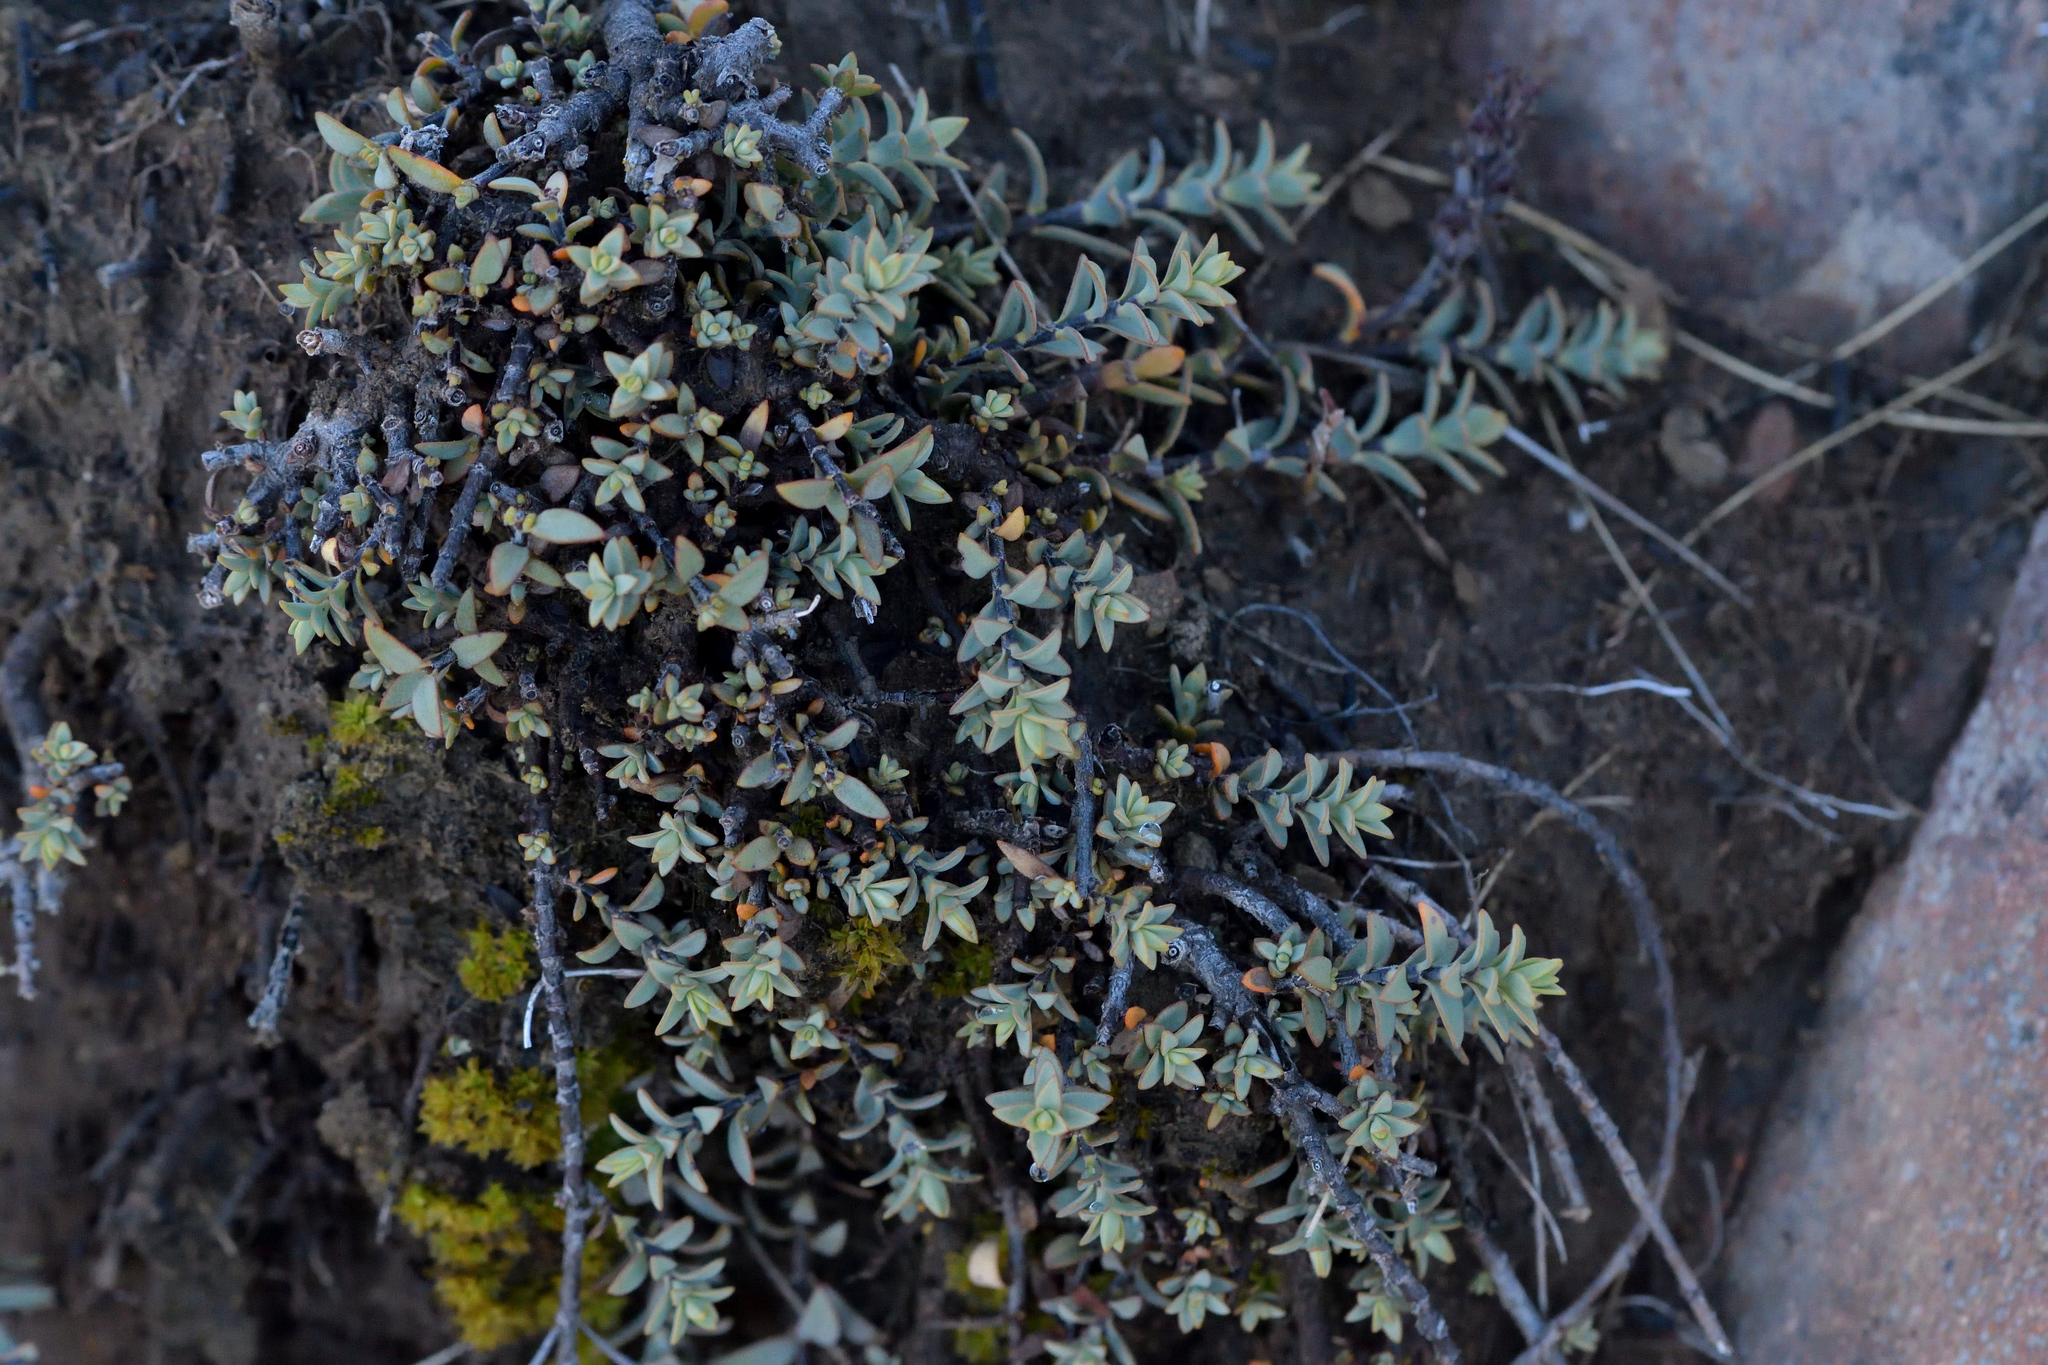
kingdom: Plantae
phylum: Tracheophyta
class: Magnoliopsida
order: Lamiales
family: Plantaginaceae
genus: Veronica
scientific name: Veronica pimeleoides
